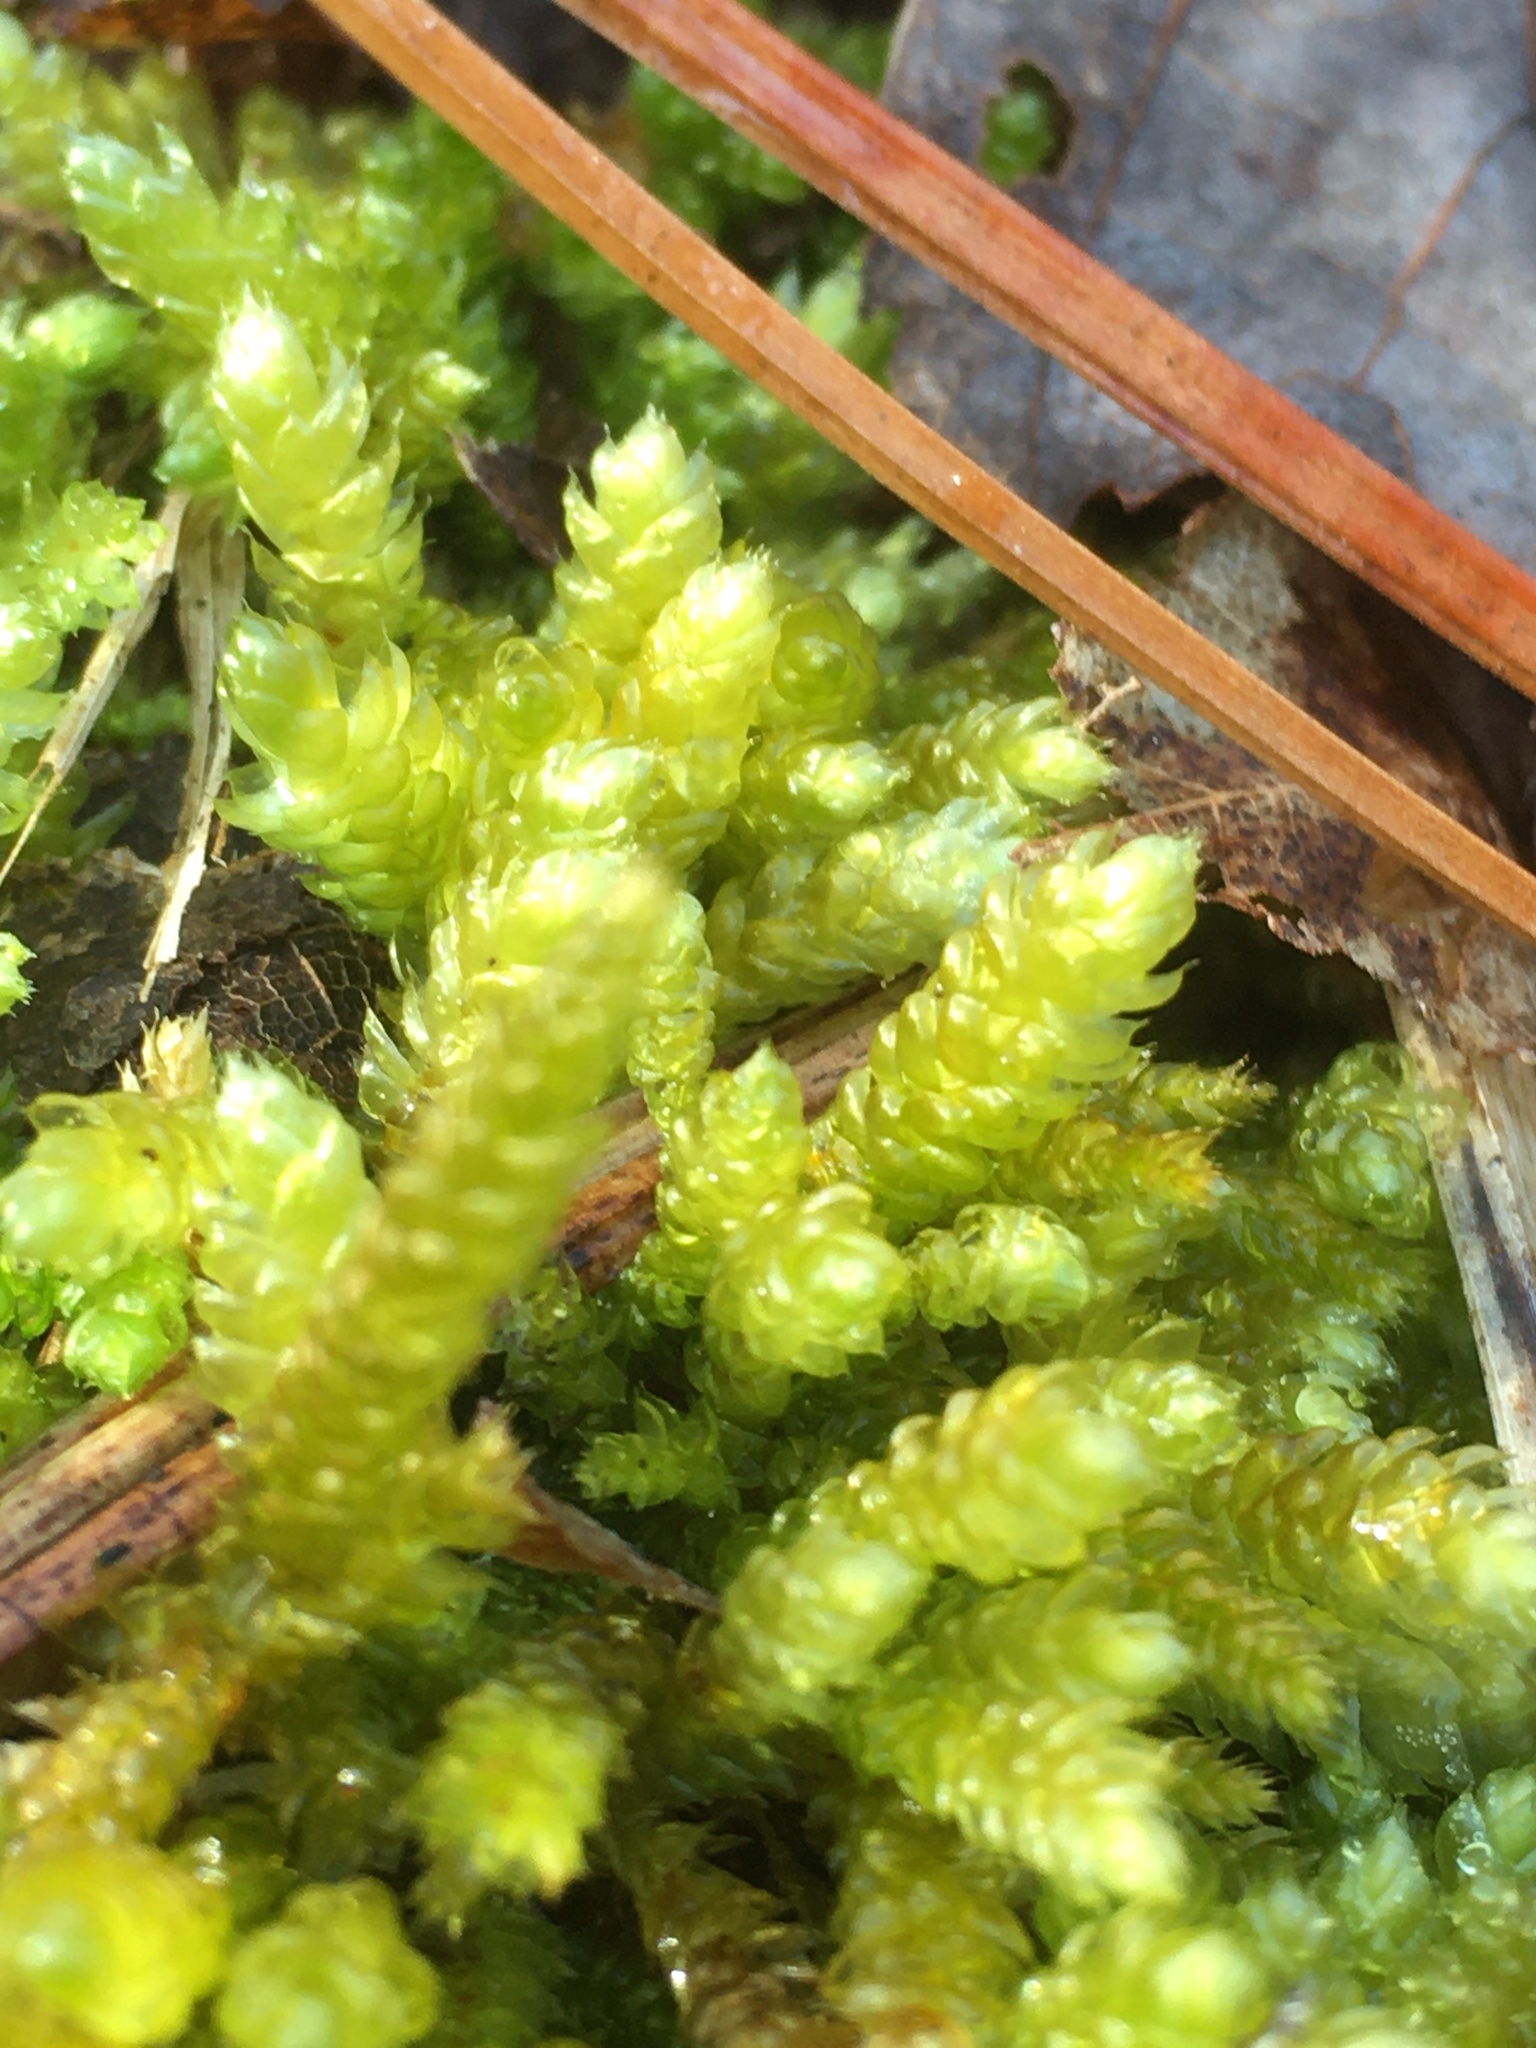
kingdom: Plantae
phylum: Bryophyta
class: Bryopsida
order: Hypnales
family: Brachytheciaceae
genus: Bryoandersonia
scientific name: Bryoandersonia illecebra
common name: Spoon-leaved moss
